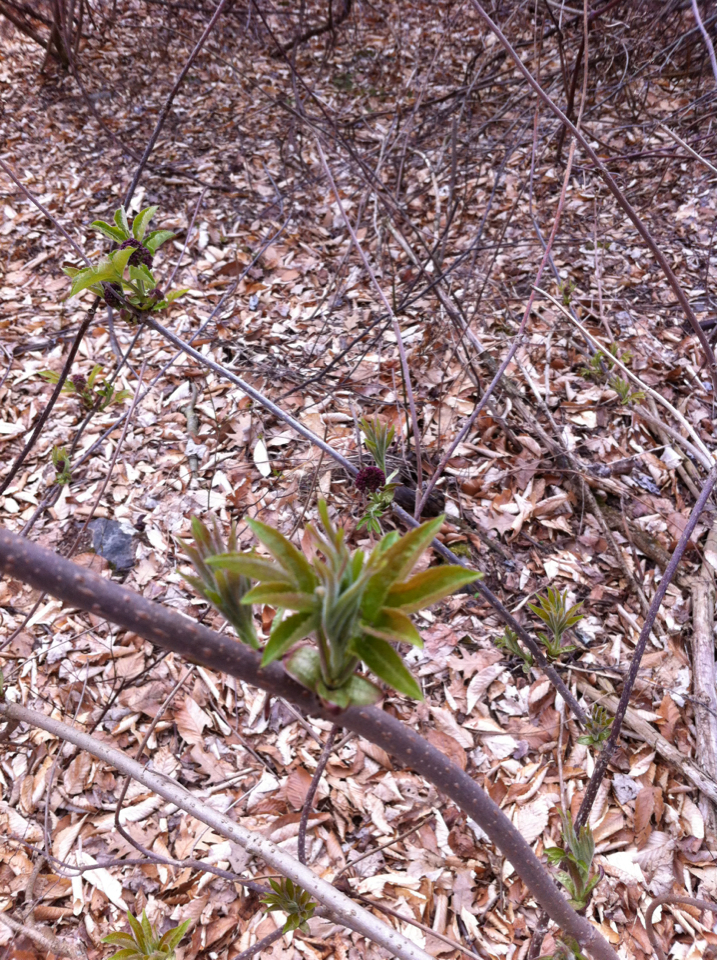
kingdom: Plantae
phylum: Tracheophyta
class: Magnoliopsida
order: Dipsacales
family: Viburnaceae
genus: Sambucus
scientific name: Sambucus racemosa
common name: Red-berried elder
